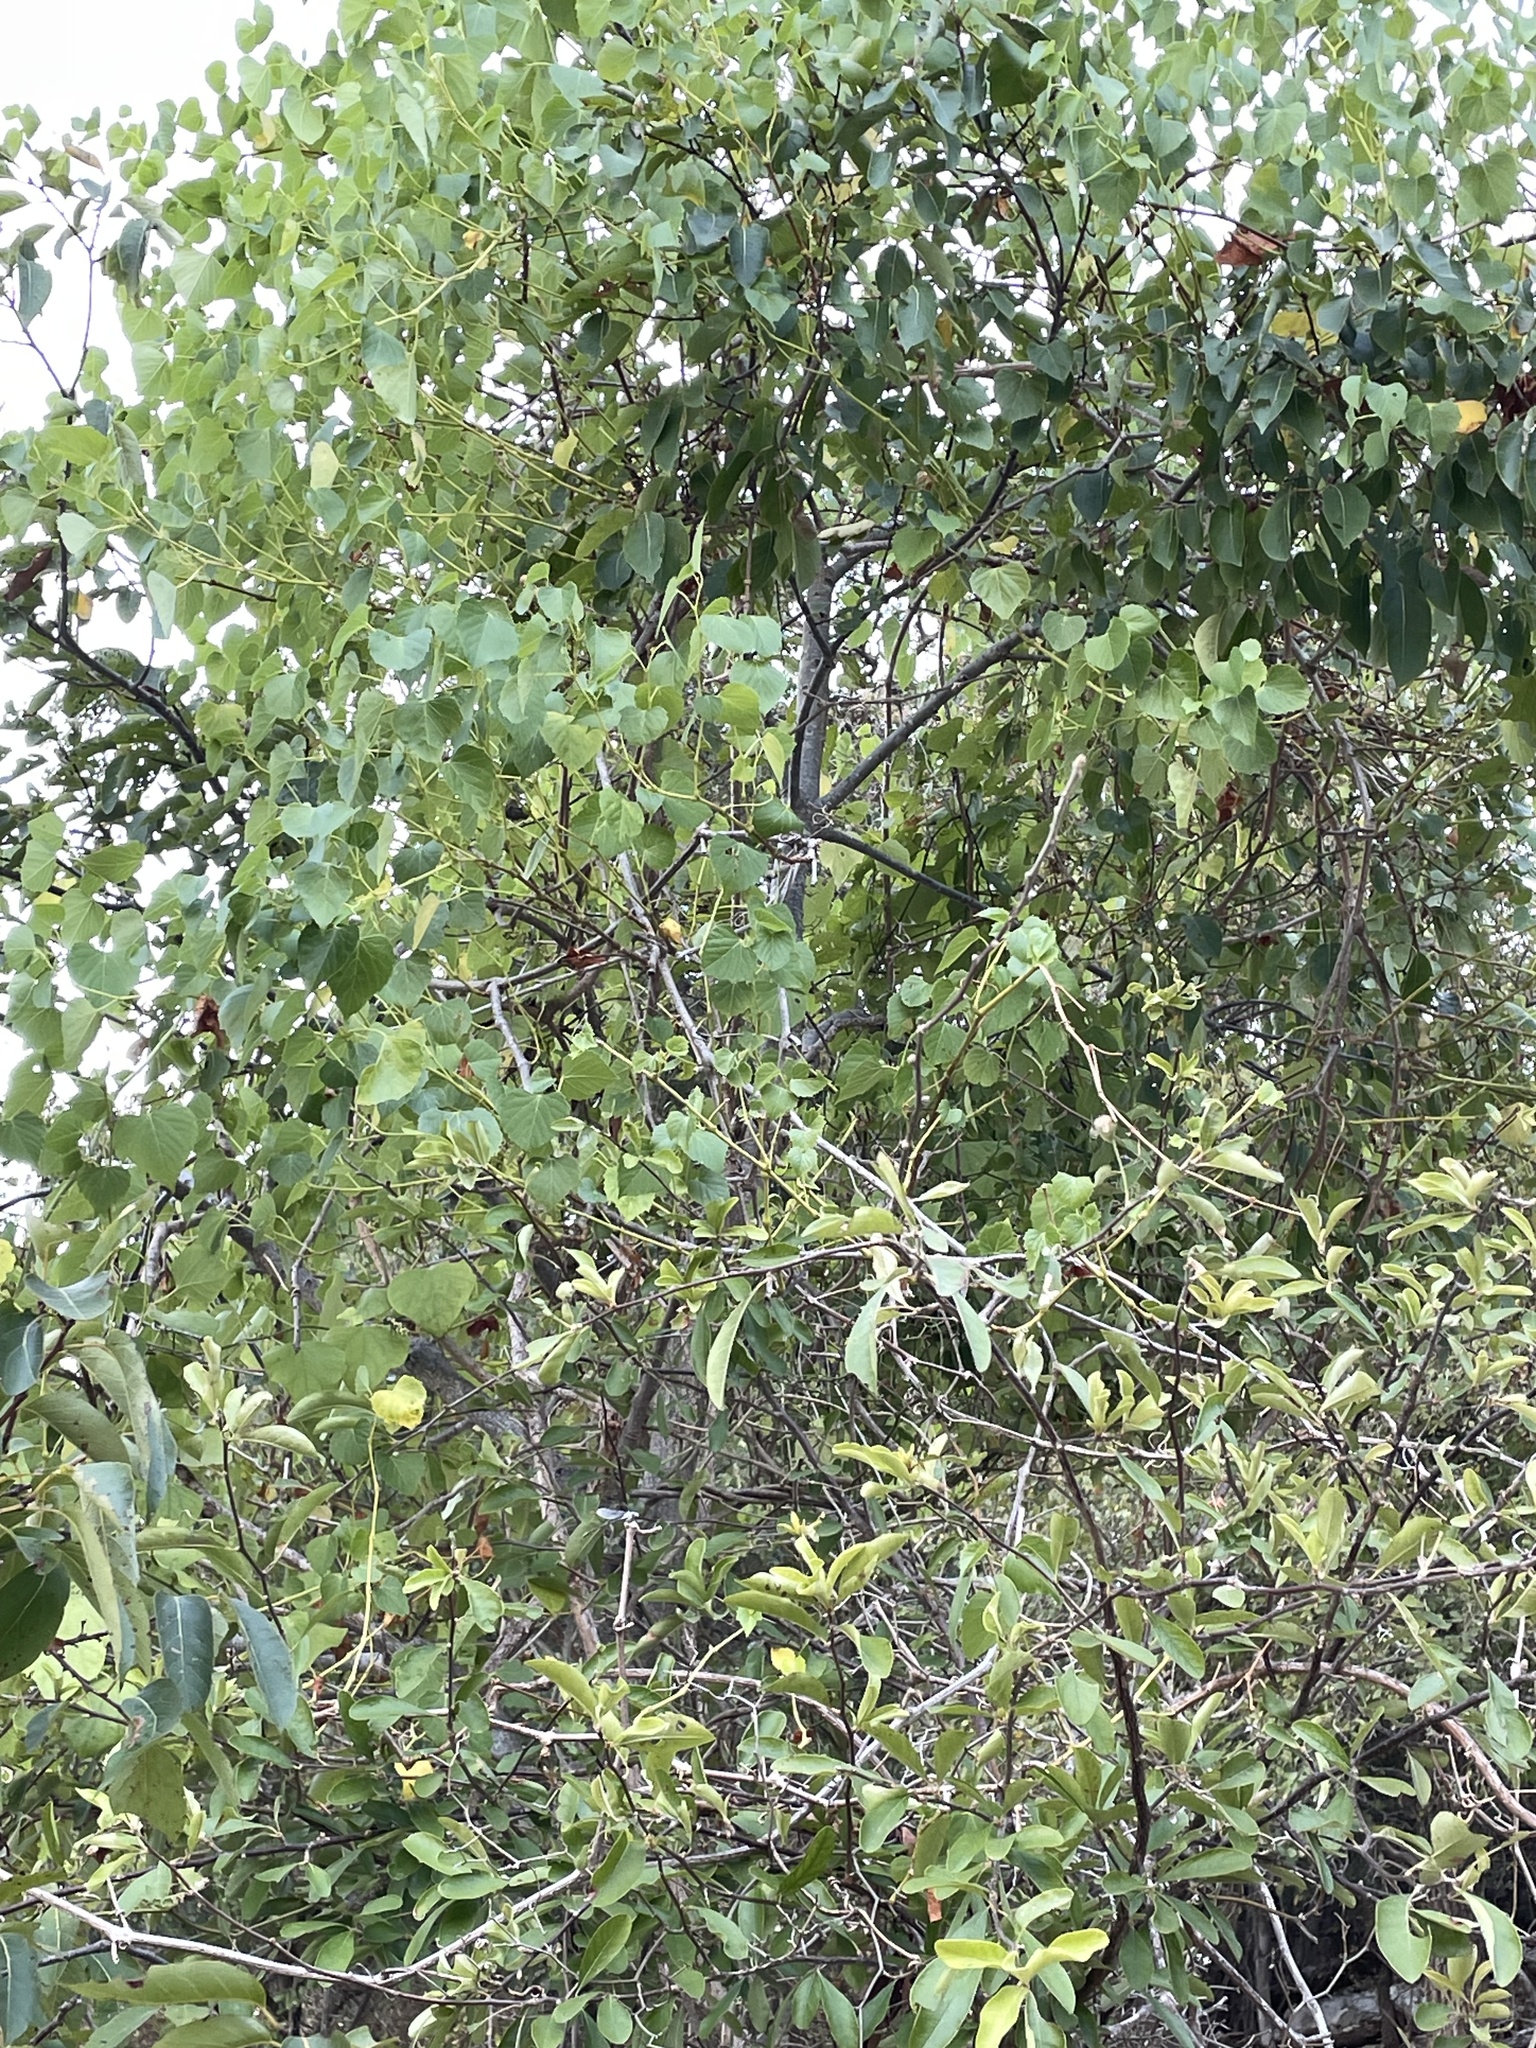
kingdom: Plantae
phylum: Tracheophyta
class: Magnoliopsida
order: Vitales
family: Vitaceae
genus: Ampelopsis
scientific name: Ampelopsis cordata
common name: Heart-leaf ampelopsis
